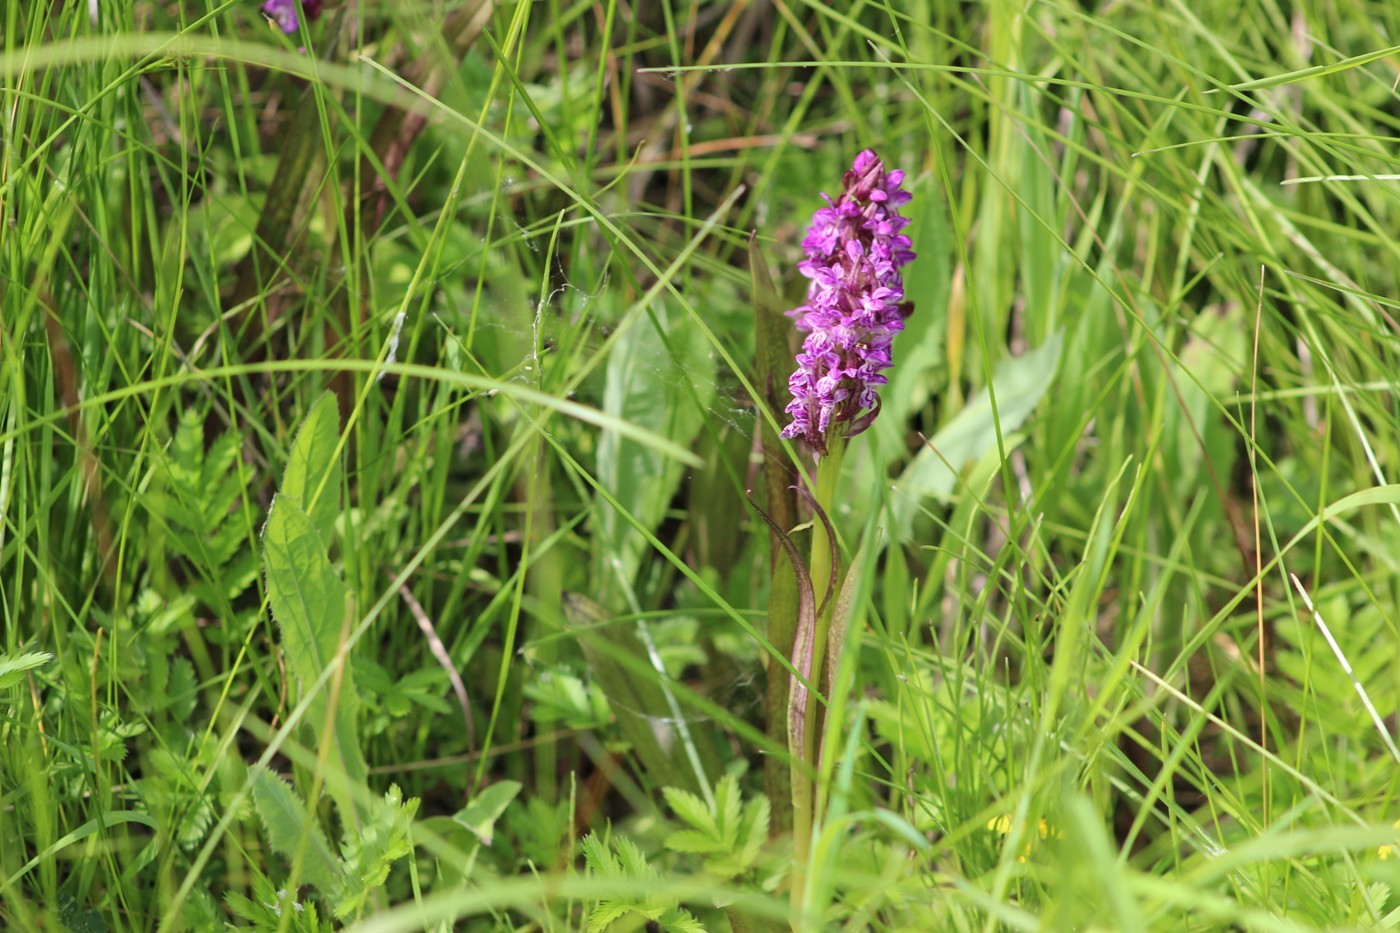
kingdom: Plantae
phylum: Tracheophyta
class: Liliopsida
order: Asparagales
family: Orchidaceae
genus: Dactylorhiza
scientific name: Dactylorhiza incarnata
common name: Early marsh-orchid
